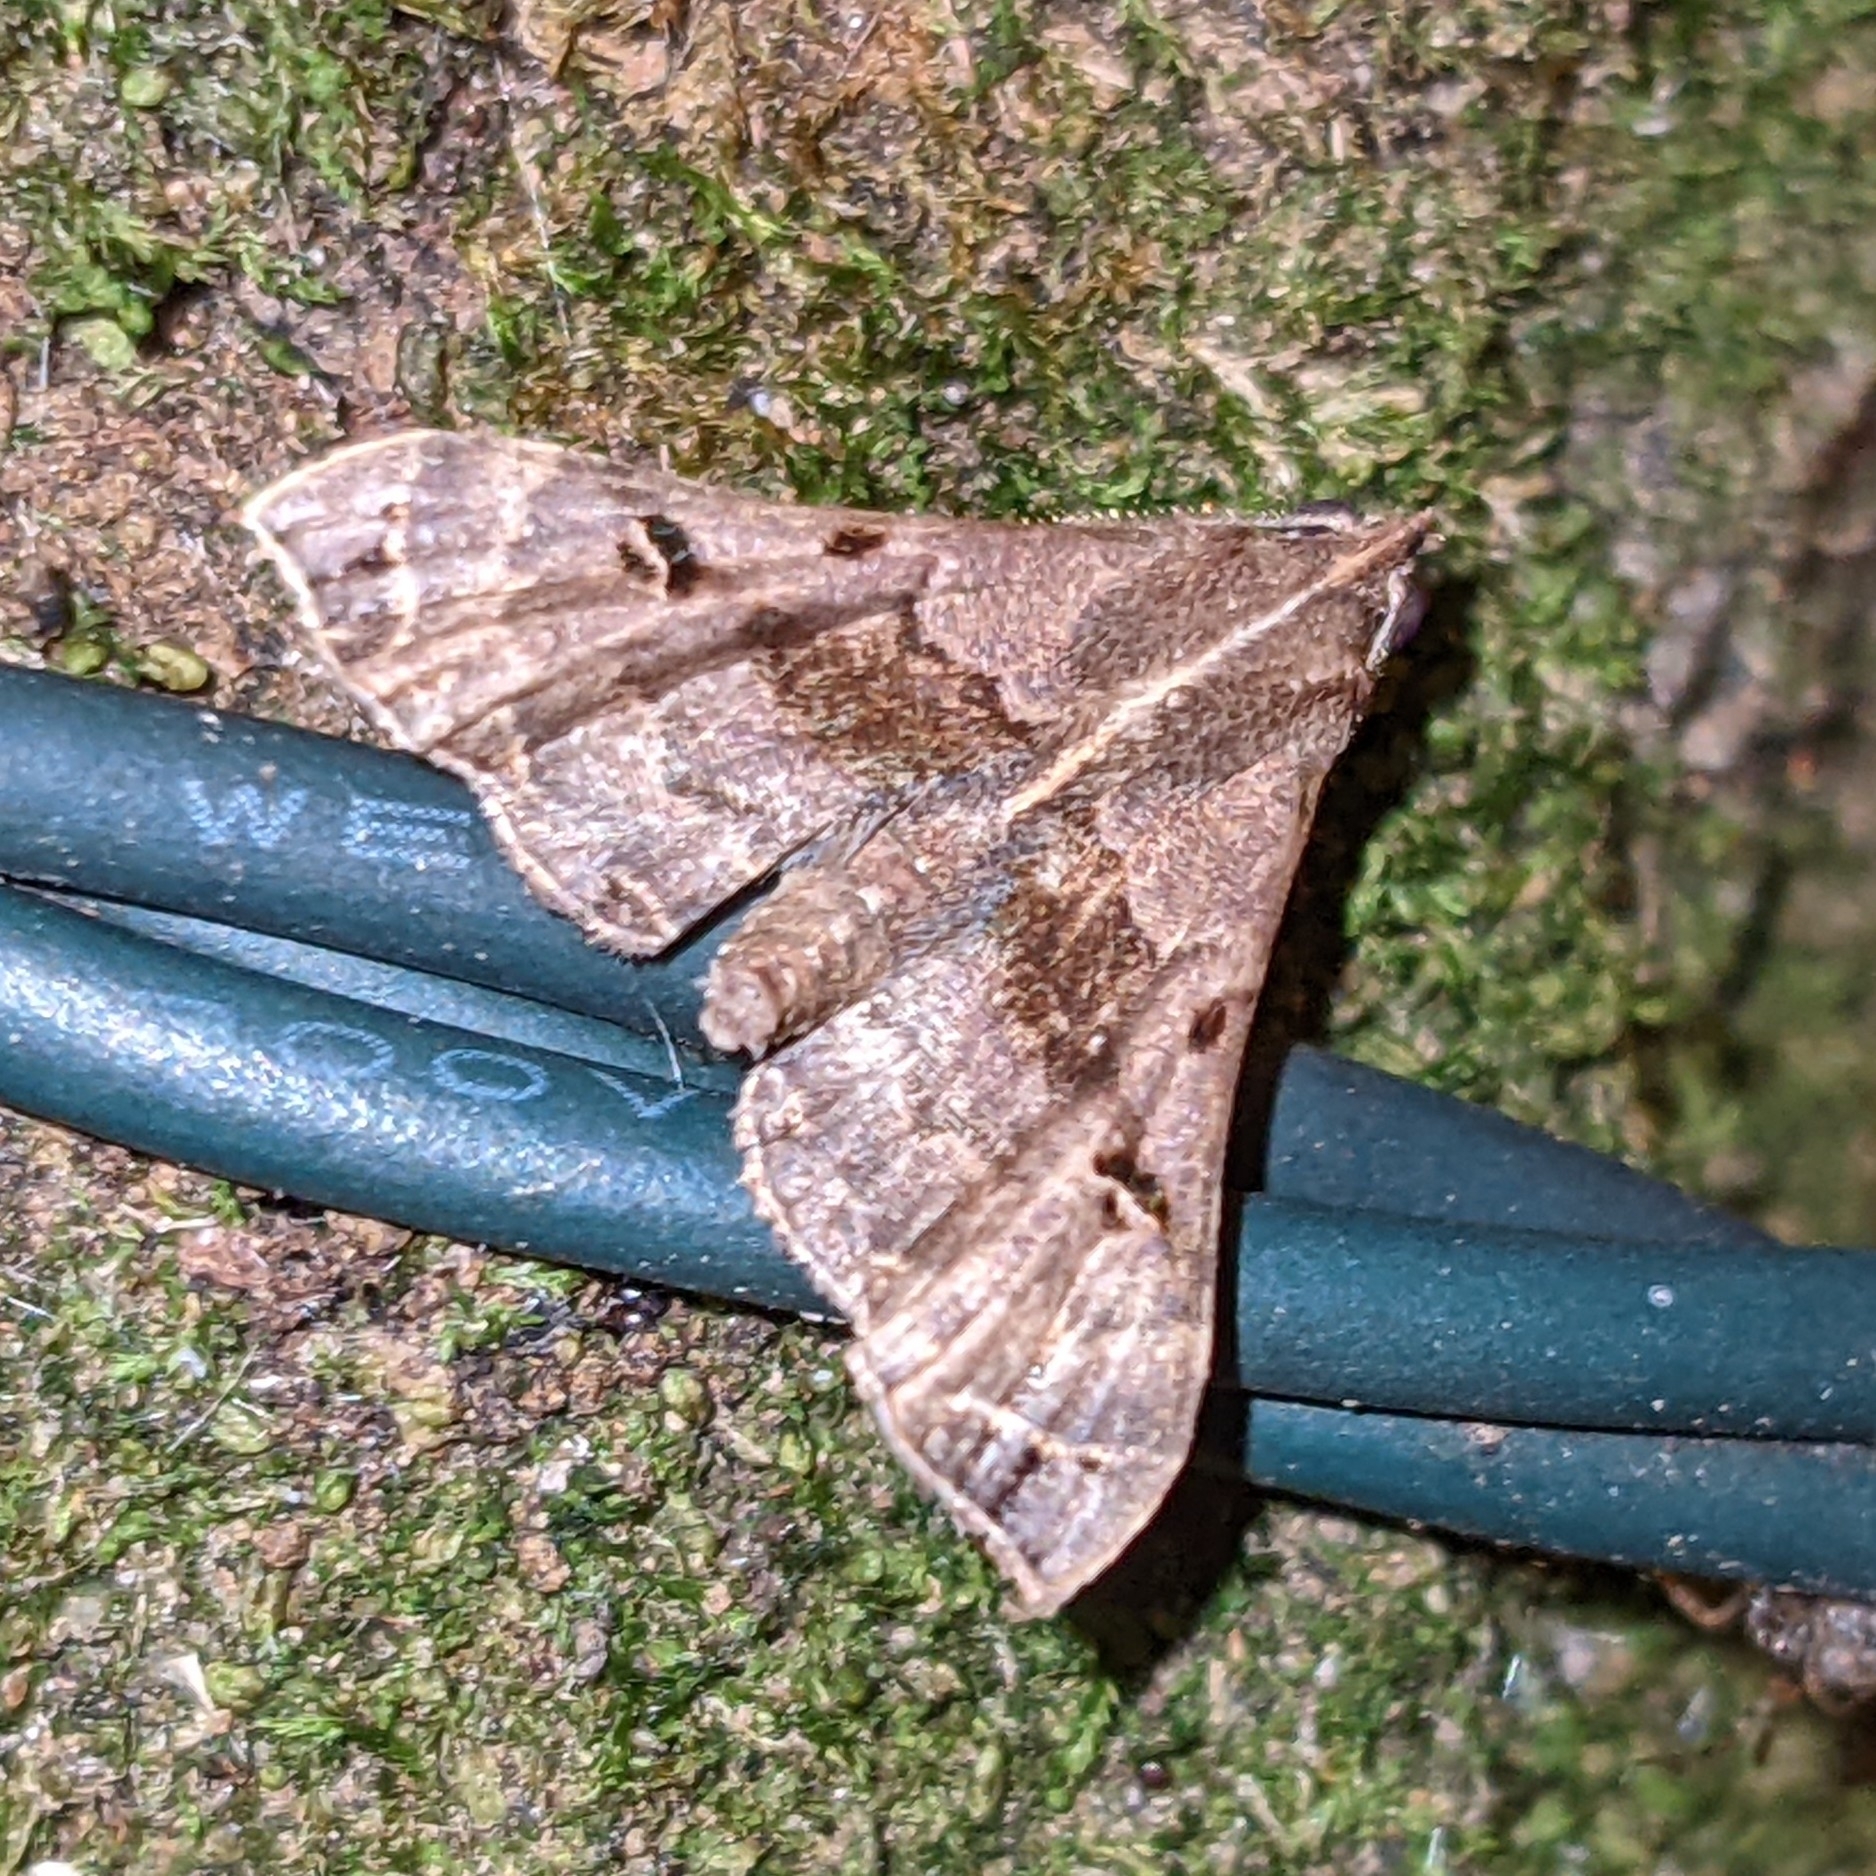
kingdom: Animalia
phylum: Arthropoda
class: Insecta
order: Lepidoptera
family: Erebidae
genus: Palthis
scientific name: Palthis asopialis
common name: Faint-spotted palthis moth
